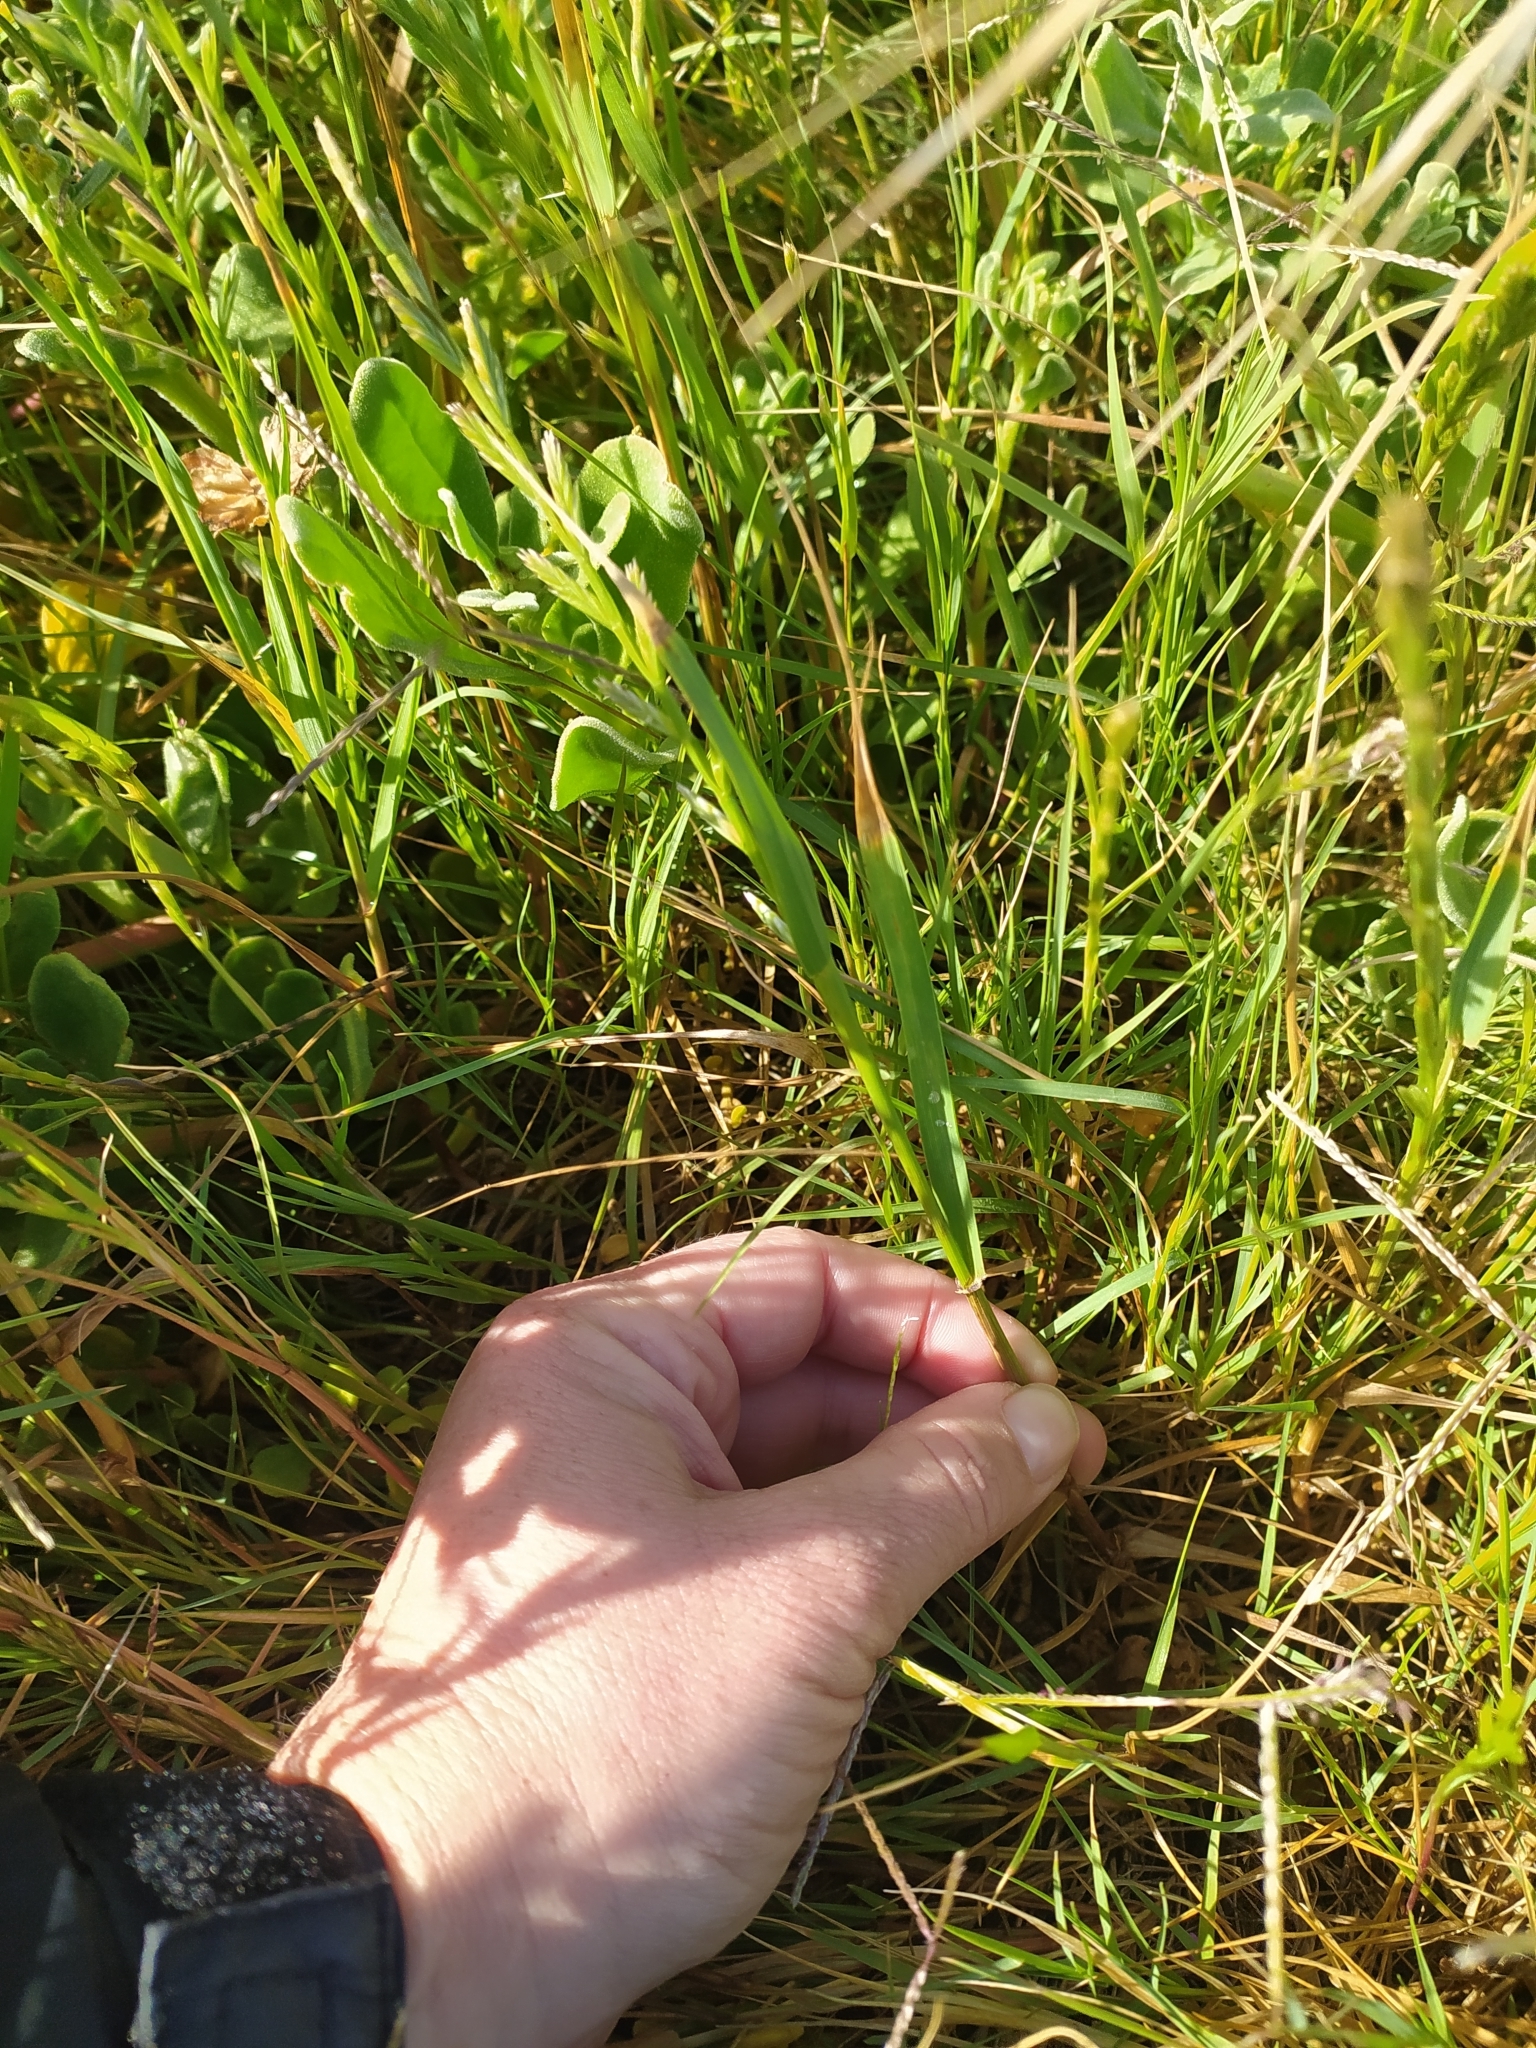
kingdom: Plantae
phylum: Tracheophyta
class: Liliopsida
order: Poales
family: Poaceae
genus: Lolium
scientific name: Lolium perenne
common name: Perennial ryegrass
